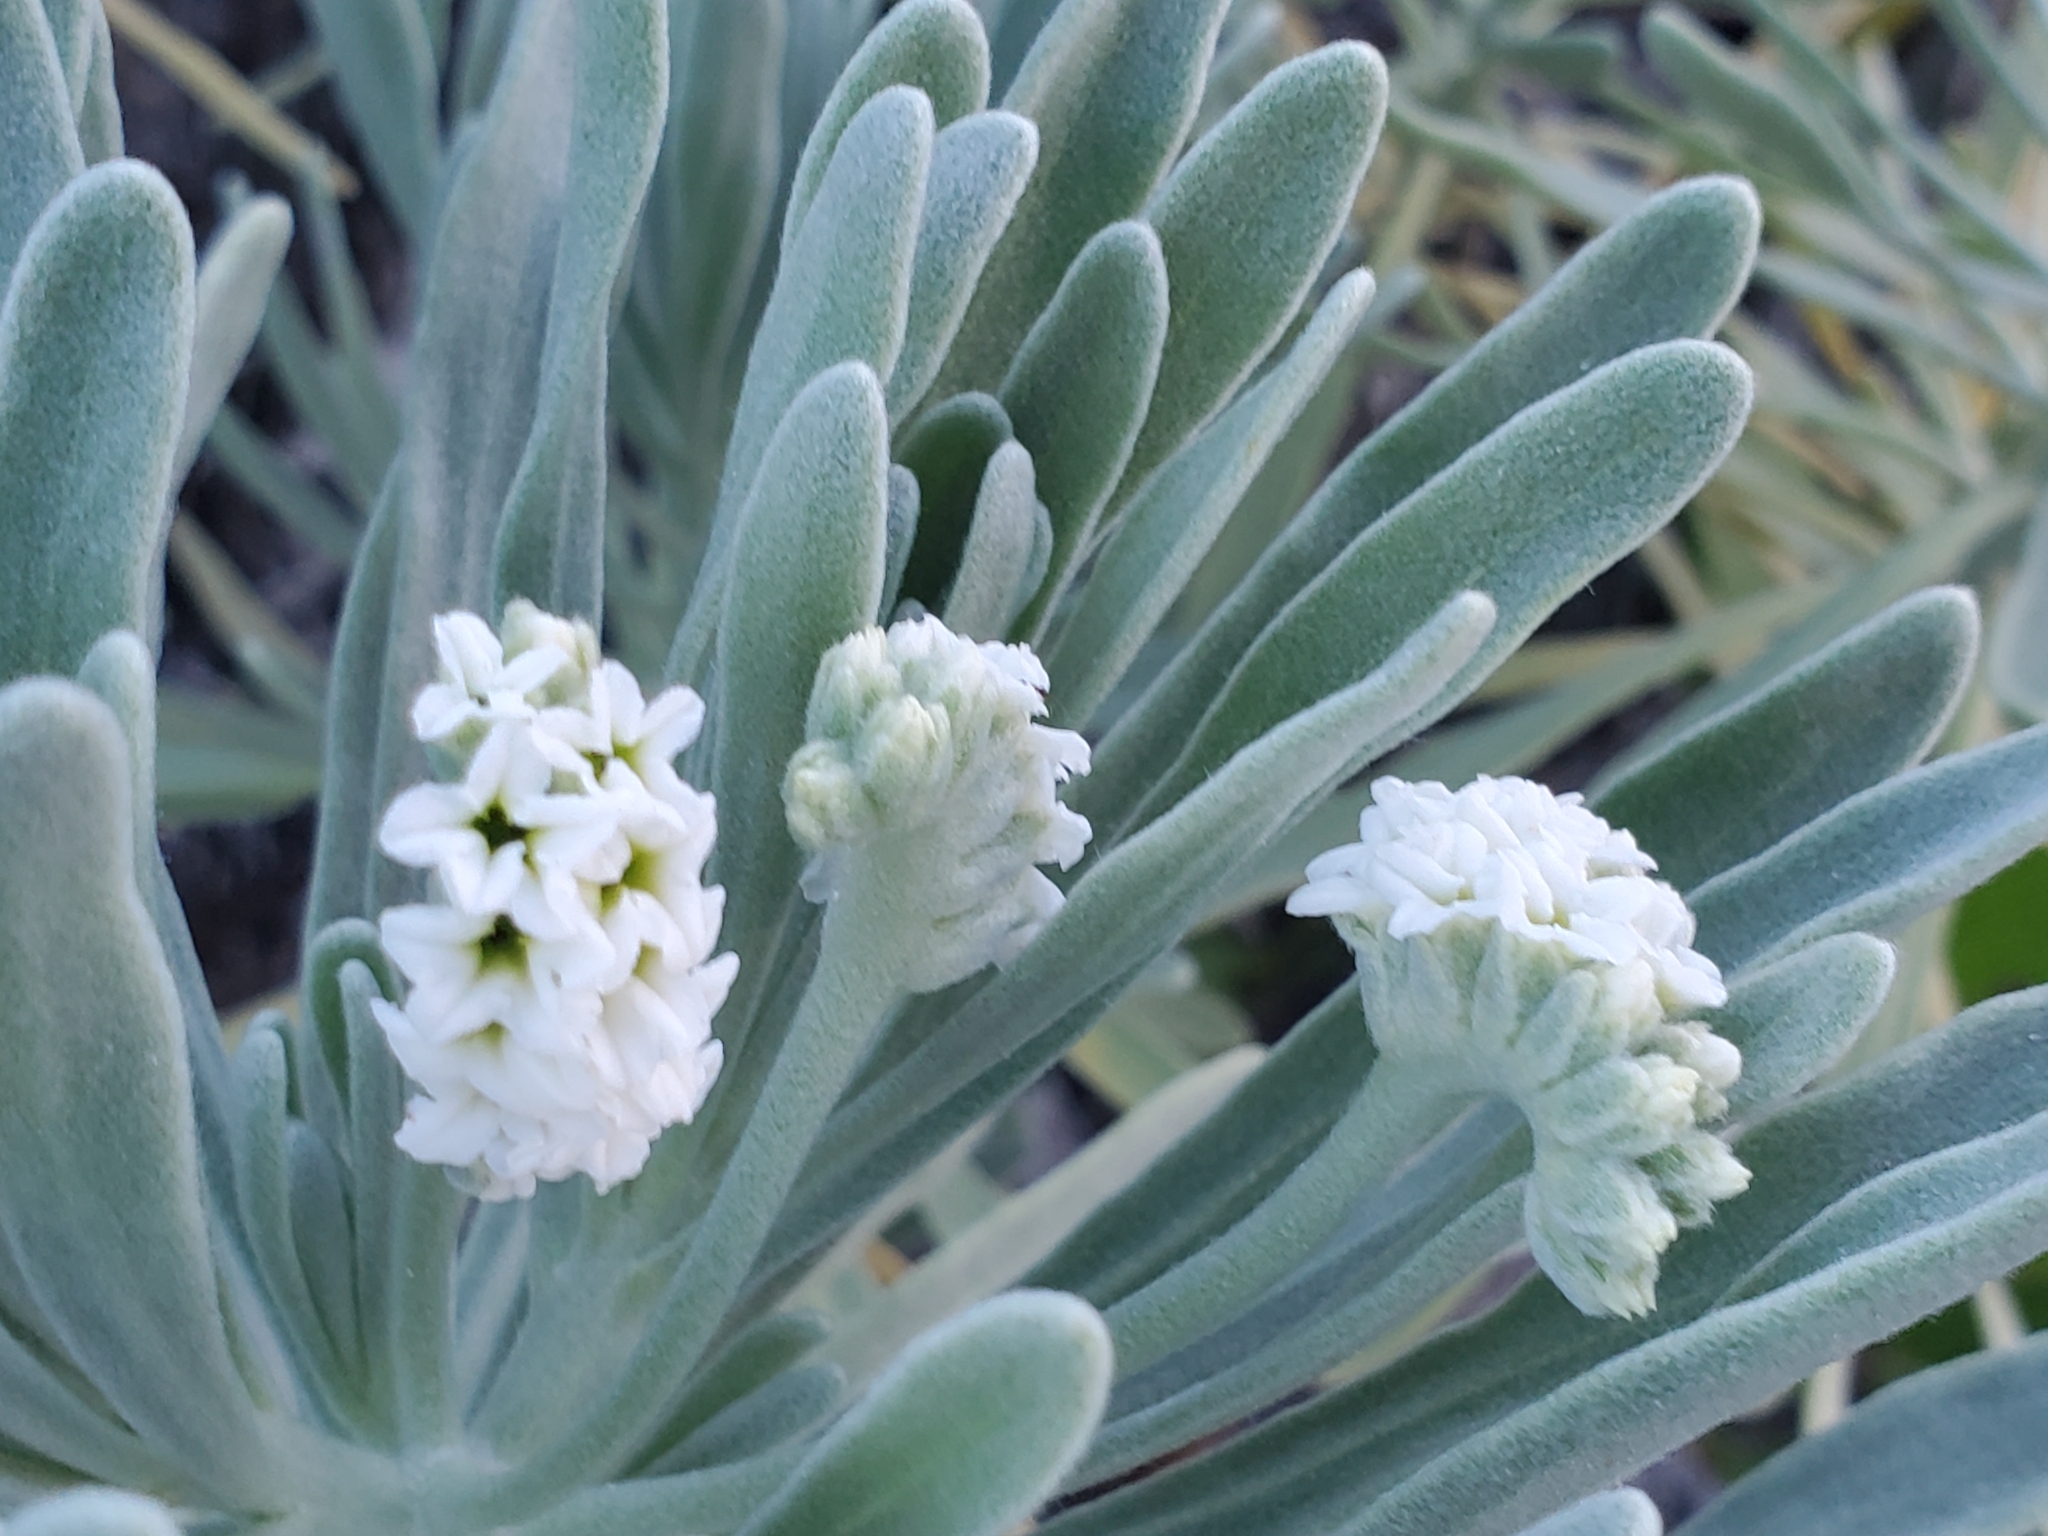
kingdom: Plantae
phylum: Tracheophyta
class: Magnoliopsida
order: Boraginales
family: Heliotropiaceae
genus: Tournefortia
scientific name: Tournefortia gnaphalodes
